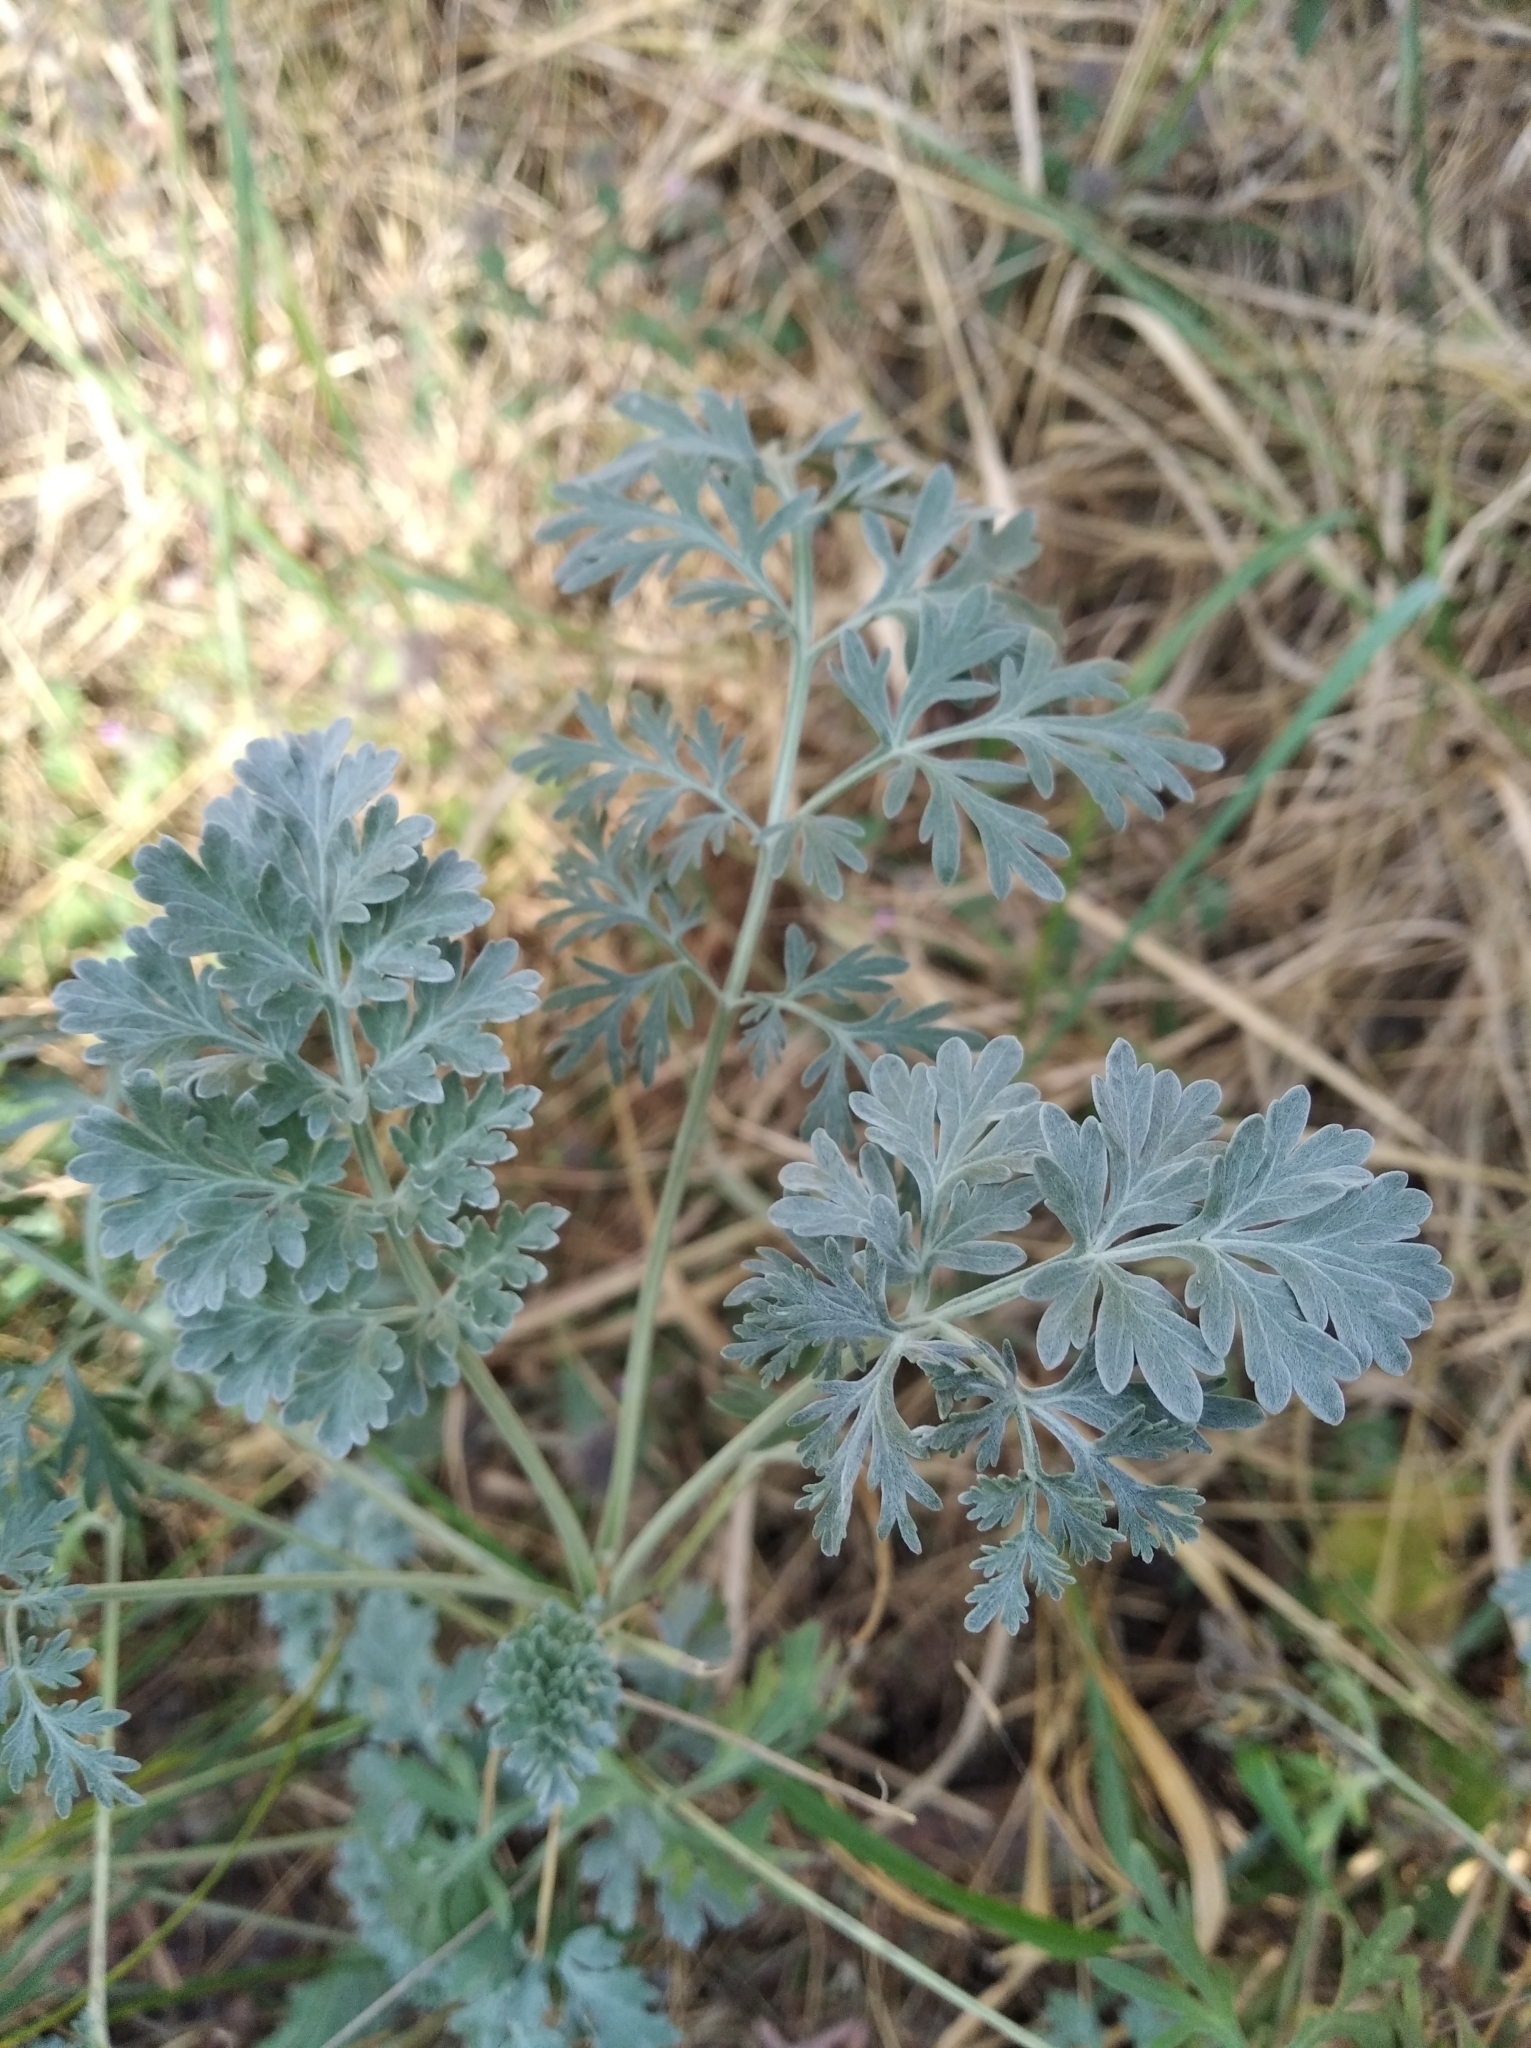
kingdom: Plantae
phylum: Tracheophyta
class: Magnoliopsida
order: Asterales
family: Asteraceae
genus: Artemisia
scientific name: Artemisia absinthium
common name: Wormwood
